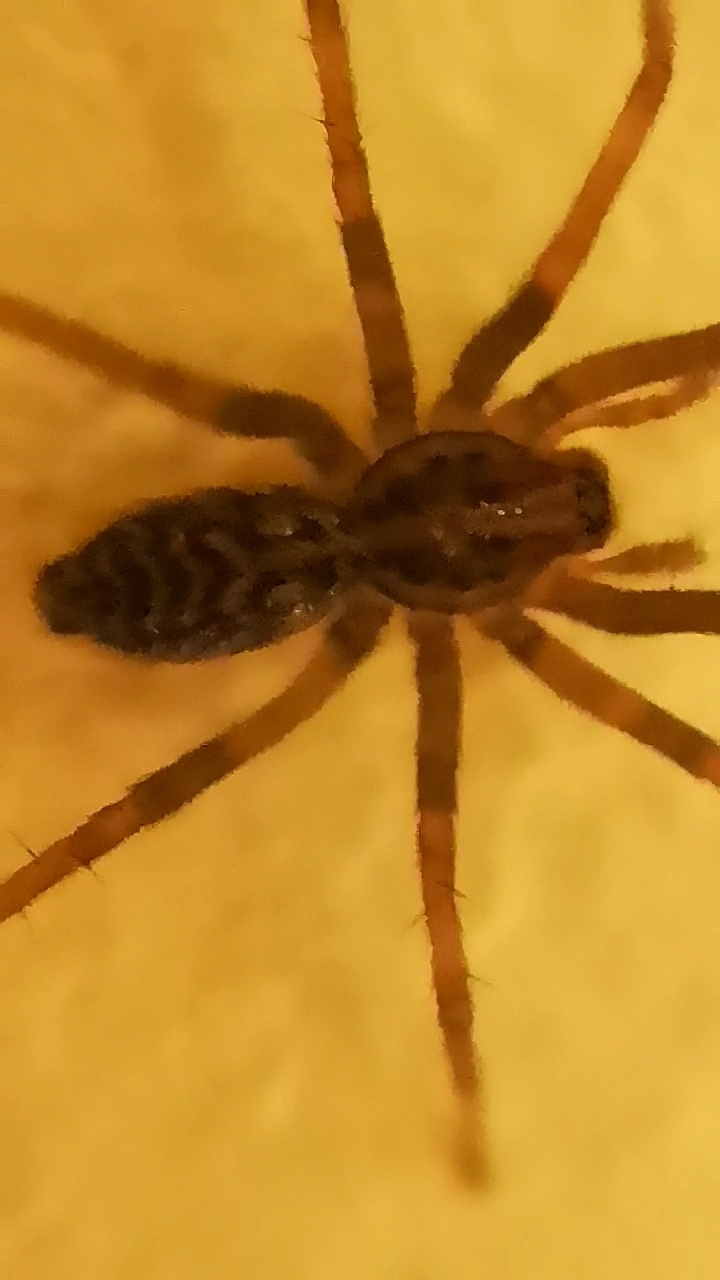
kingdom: Animalia
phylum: Arthropoda
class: Arachnida
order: Araneae
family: Agelenidae
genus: Eratigena
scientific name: Eratigena atrica
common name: Giant house spider
